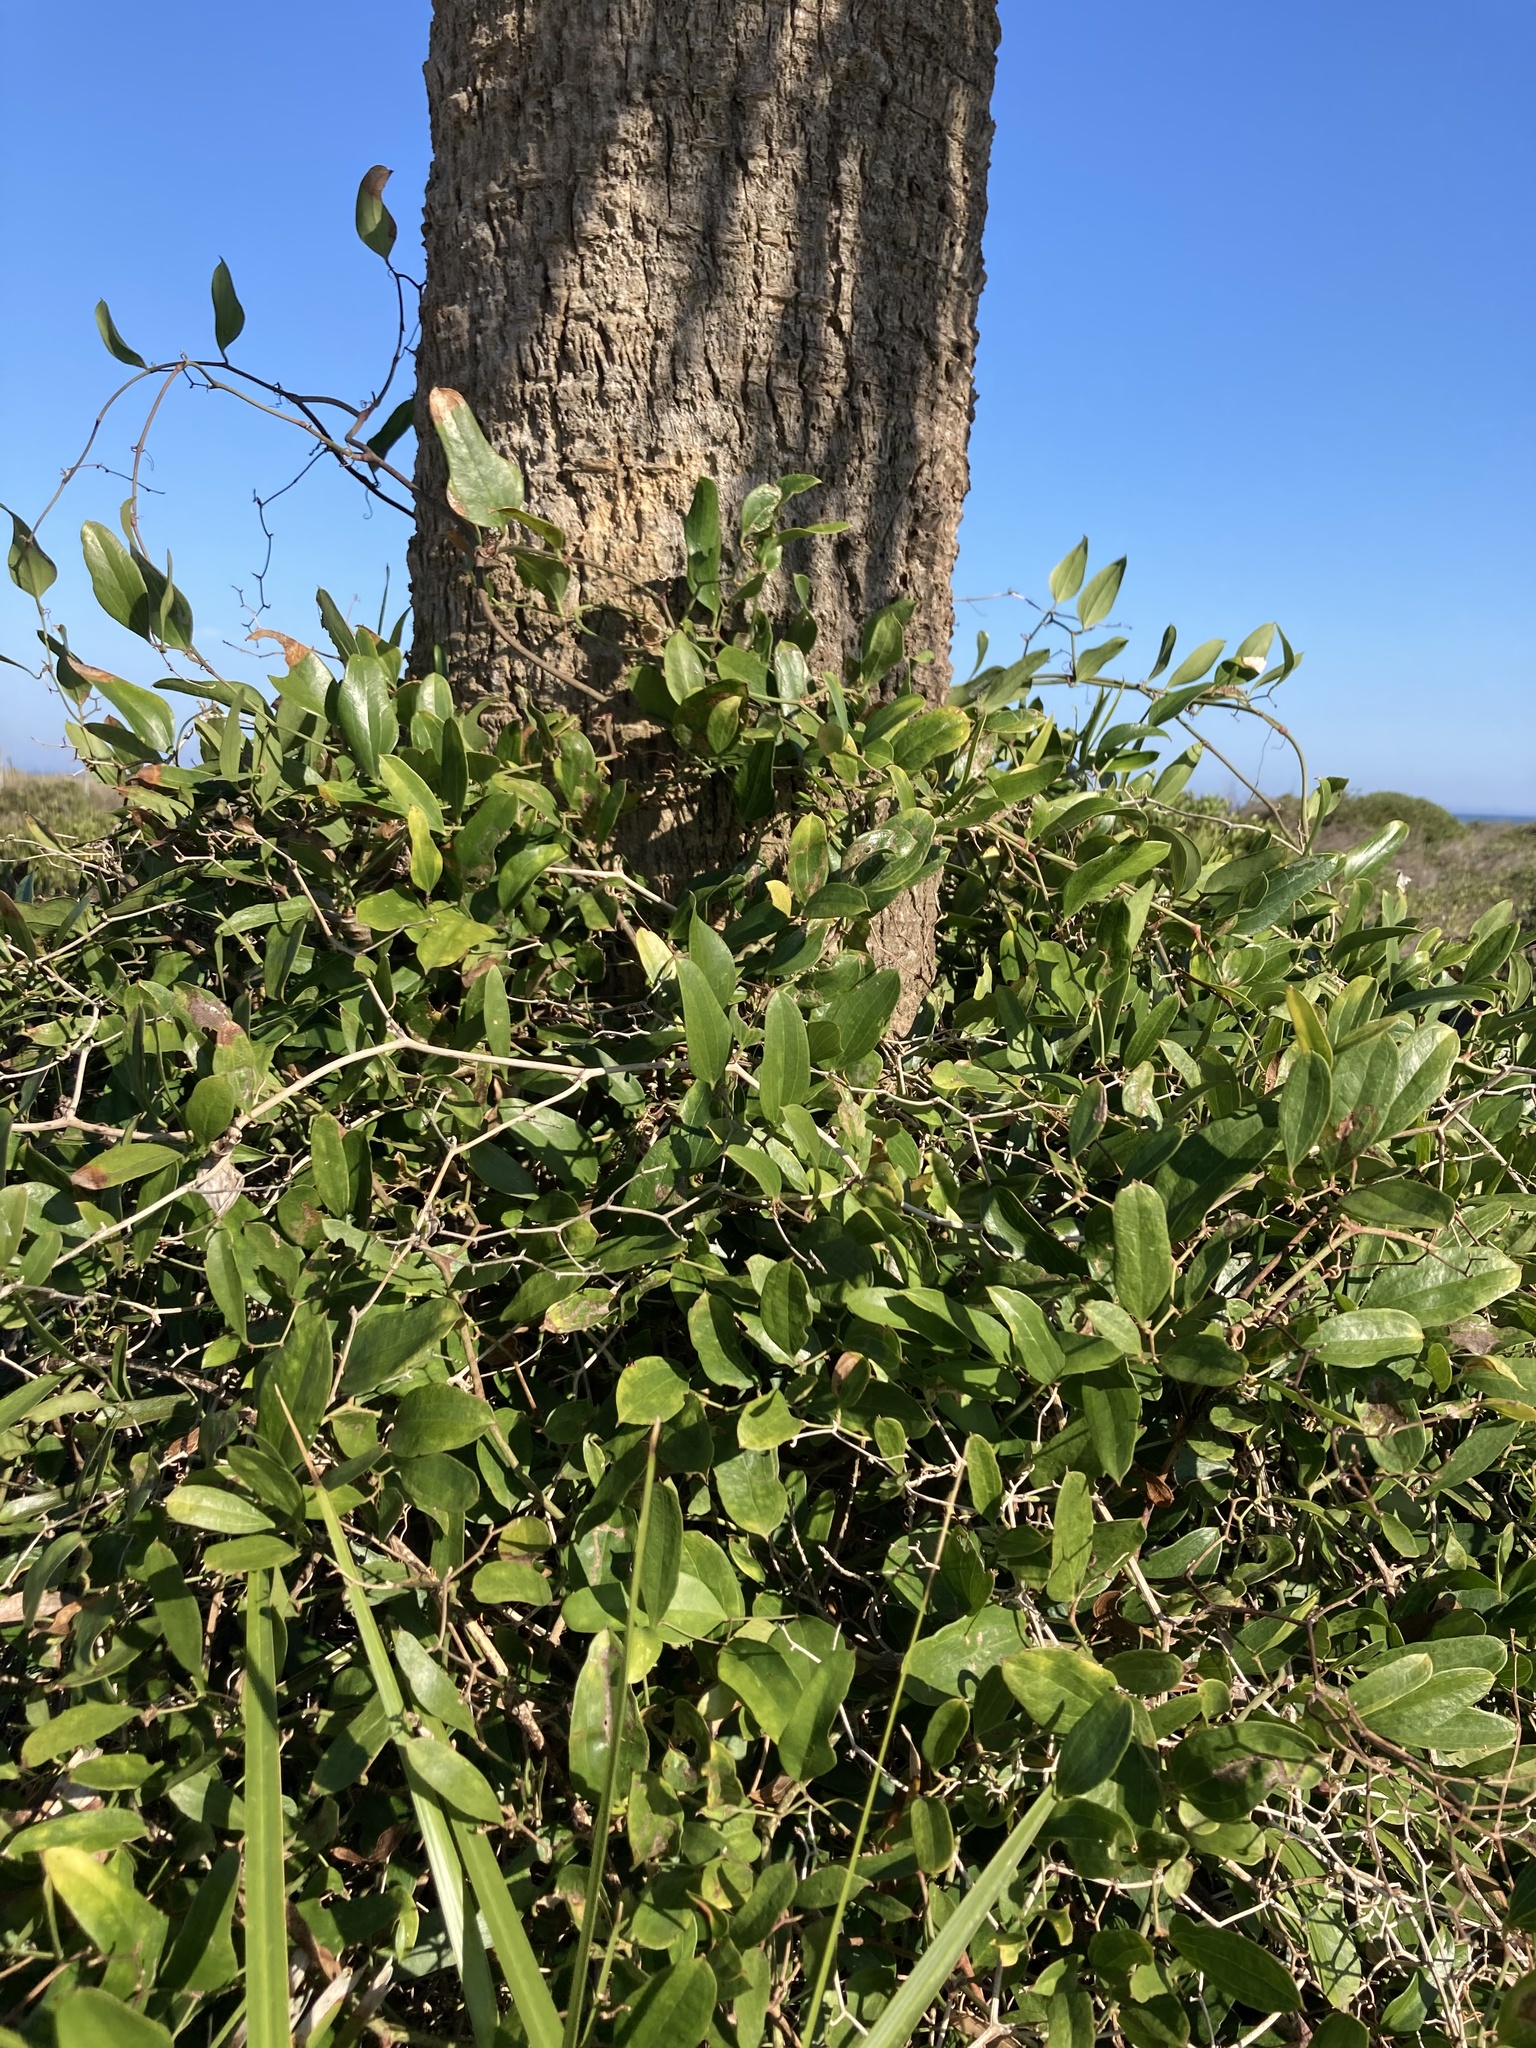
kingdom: Plantae
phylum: Tracheophyta
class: Liliopsida
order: Liliales
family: Smilacaceae
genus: Smilax
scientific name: Smilax auriculata
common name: Wild bamboo
